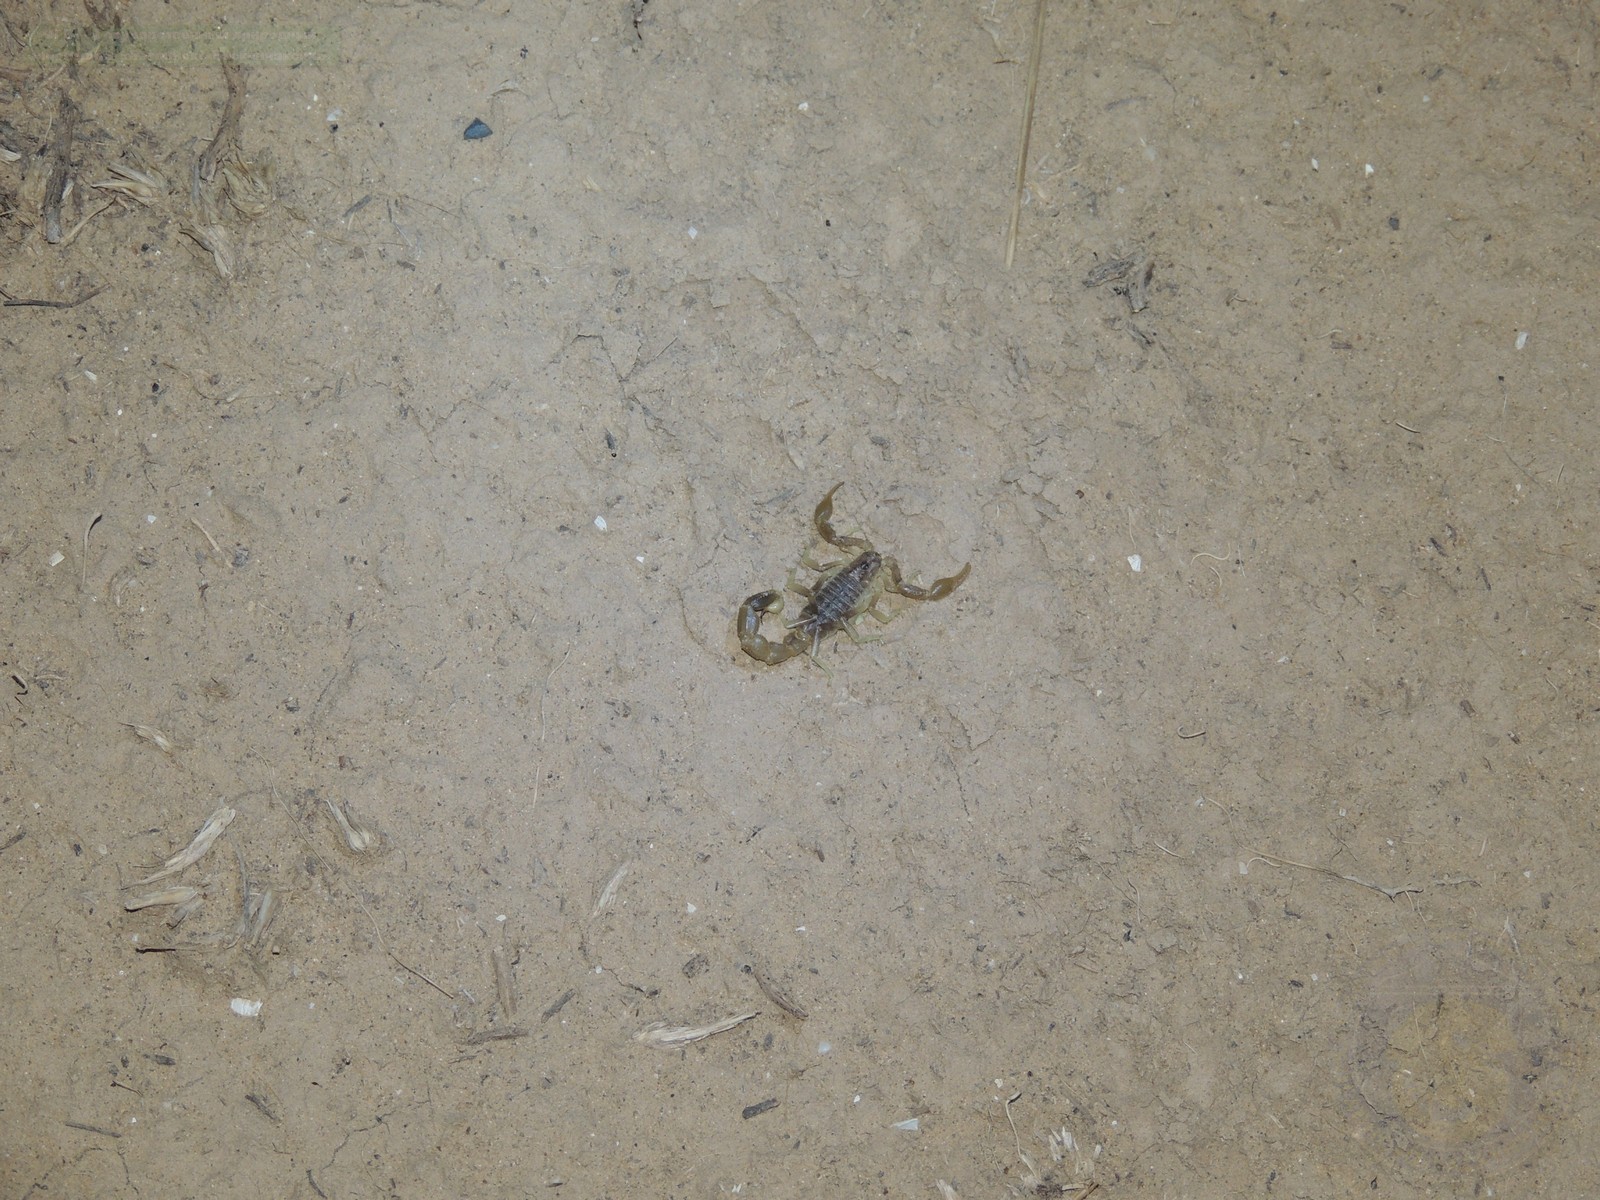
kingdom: Animalia
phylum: Arthropoda
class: Arachnida
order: Scorpiones
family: Buthidae
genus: Mesobuthus
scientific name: Mesobuthus bogdoensis
